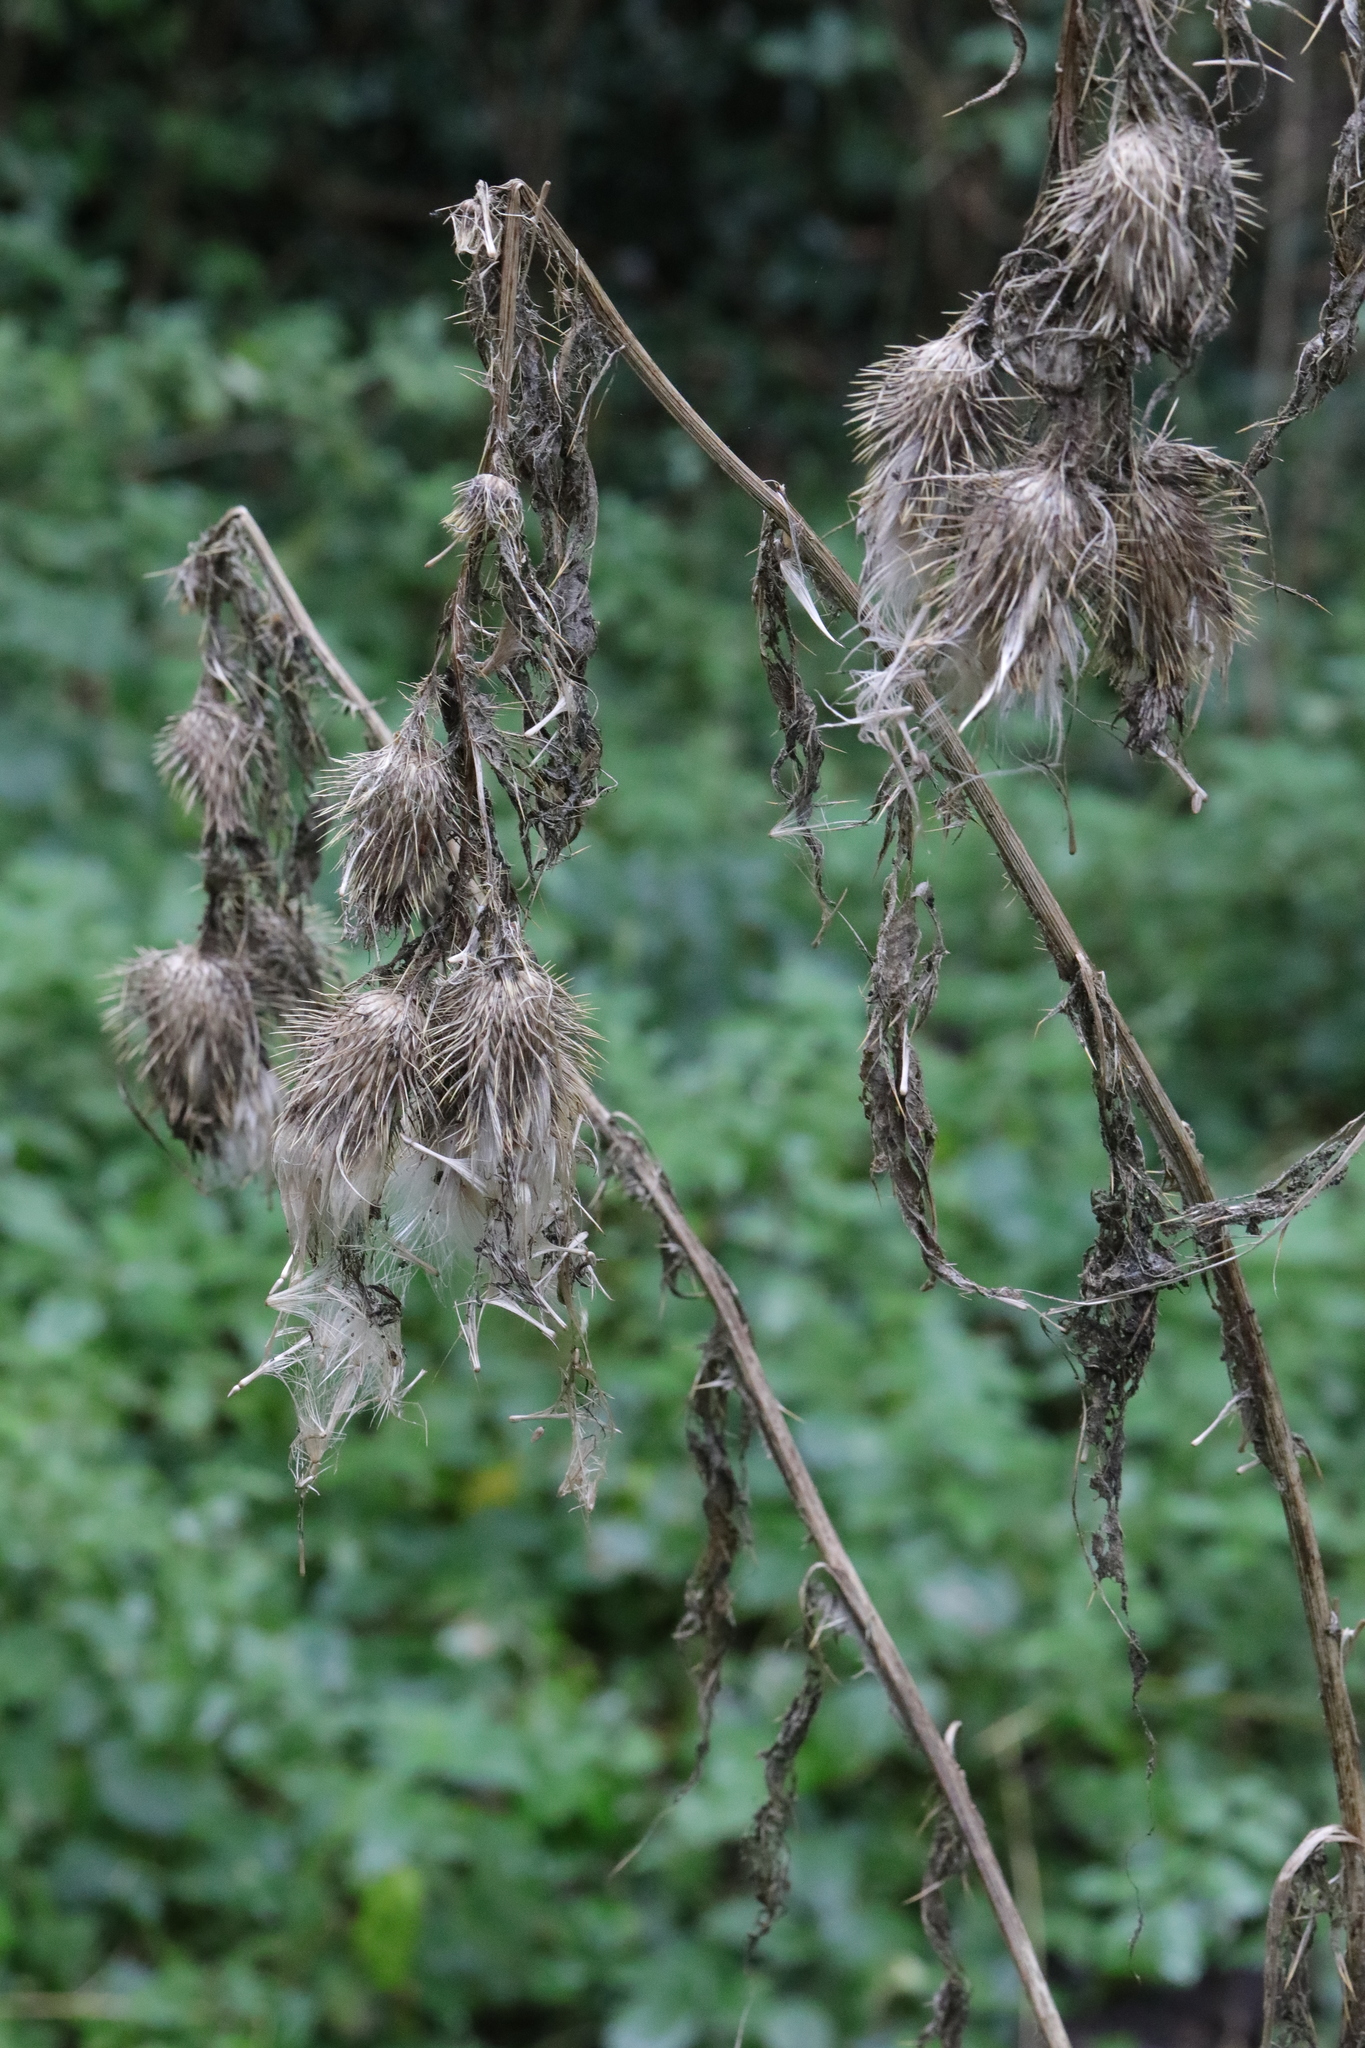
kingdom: Plantae
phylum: Tracheophyta
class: Magnoliopsida
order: Asterales
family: Asteraceae
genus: Cirsium
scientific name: Cirsium vulgare
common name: Bull thistle
